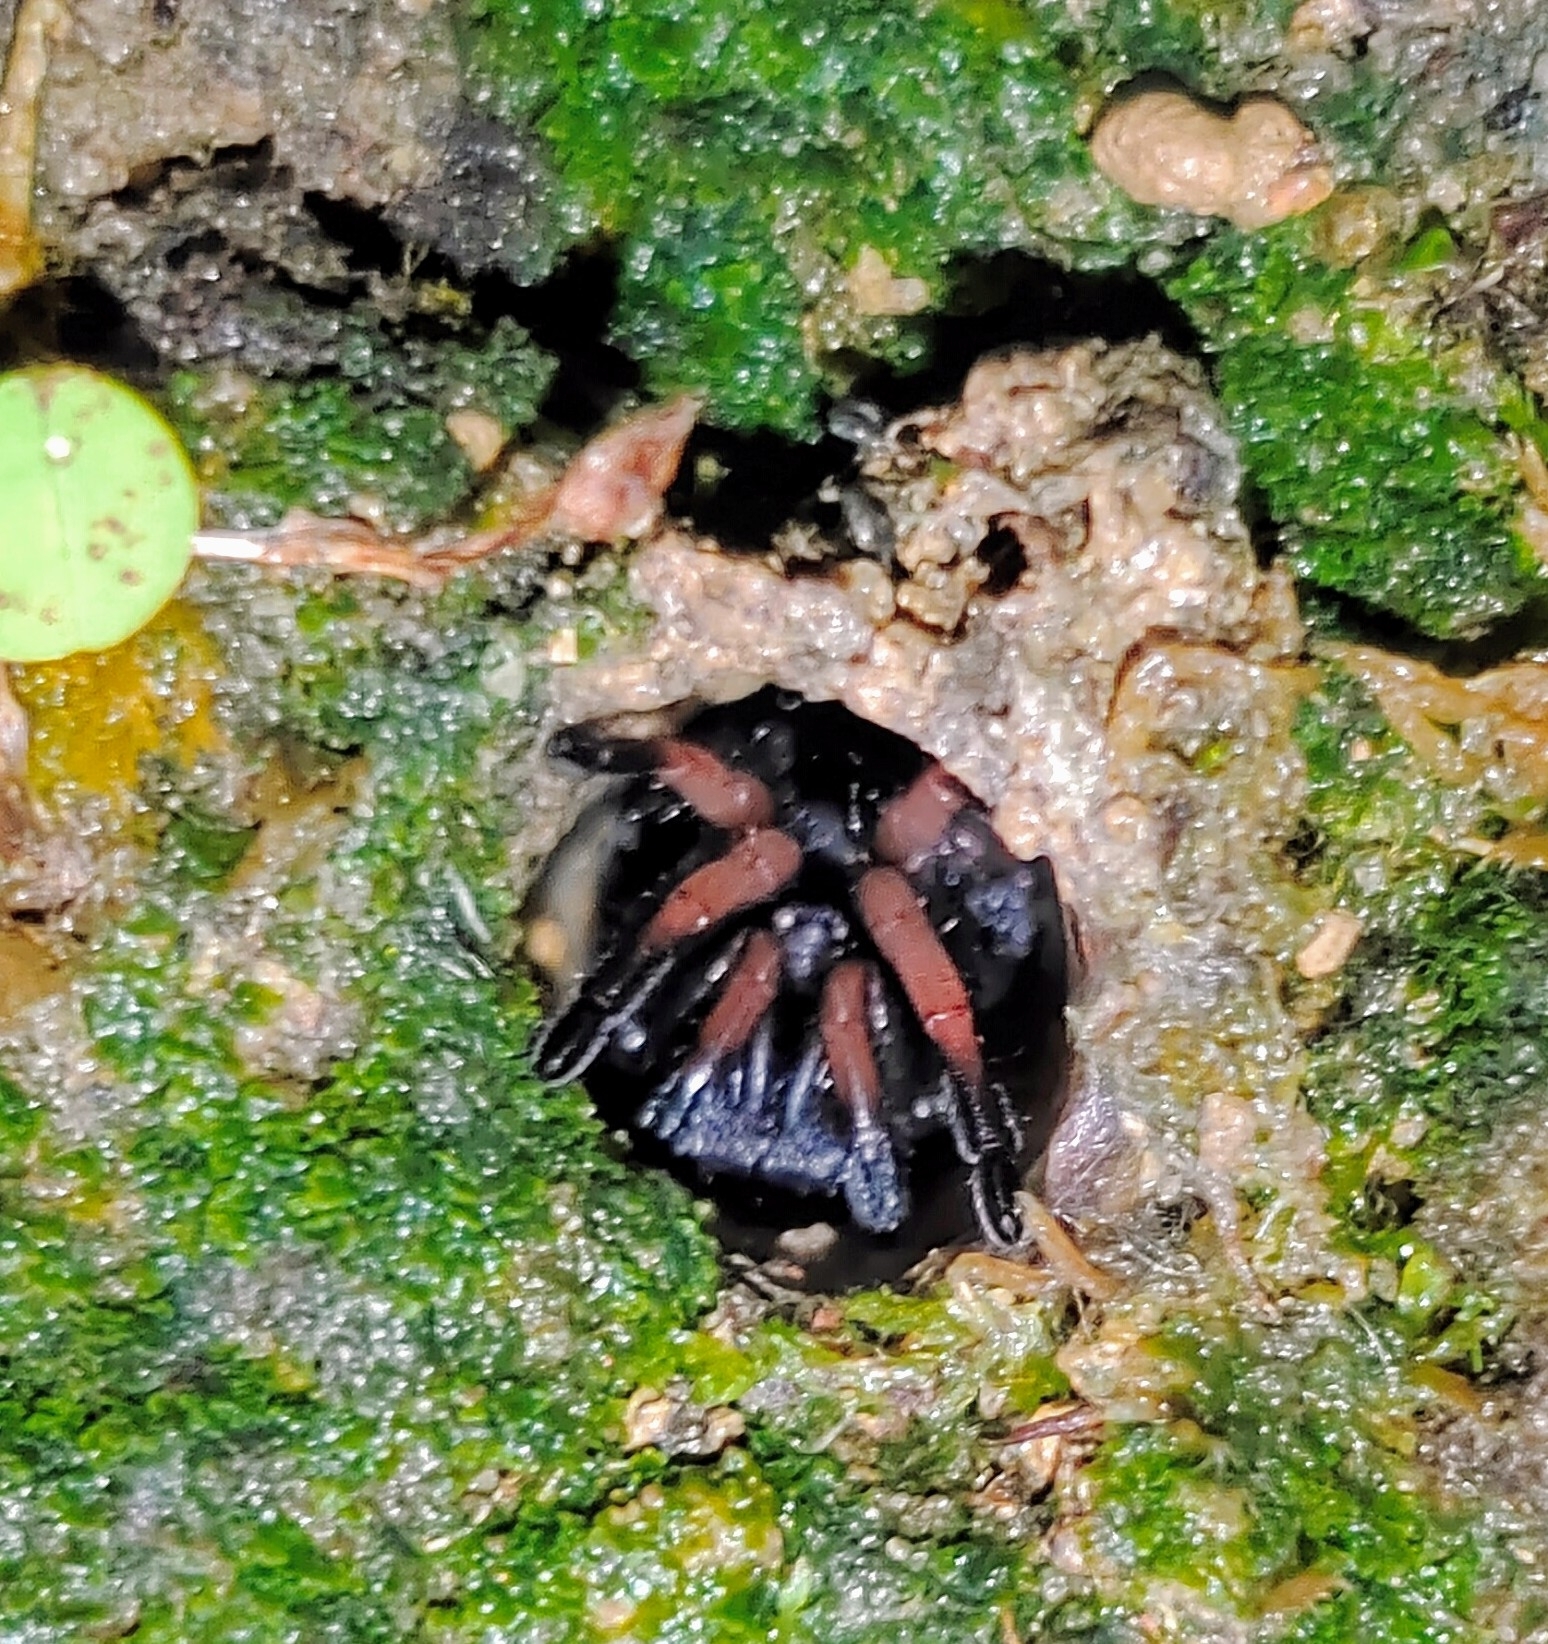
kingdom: Animalia
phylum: Arthropoda
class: Arachnida
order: Araneae
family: Bemmeridae
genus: Damarchus
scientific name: Damarchus workmani
